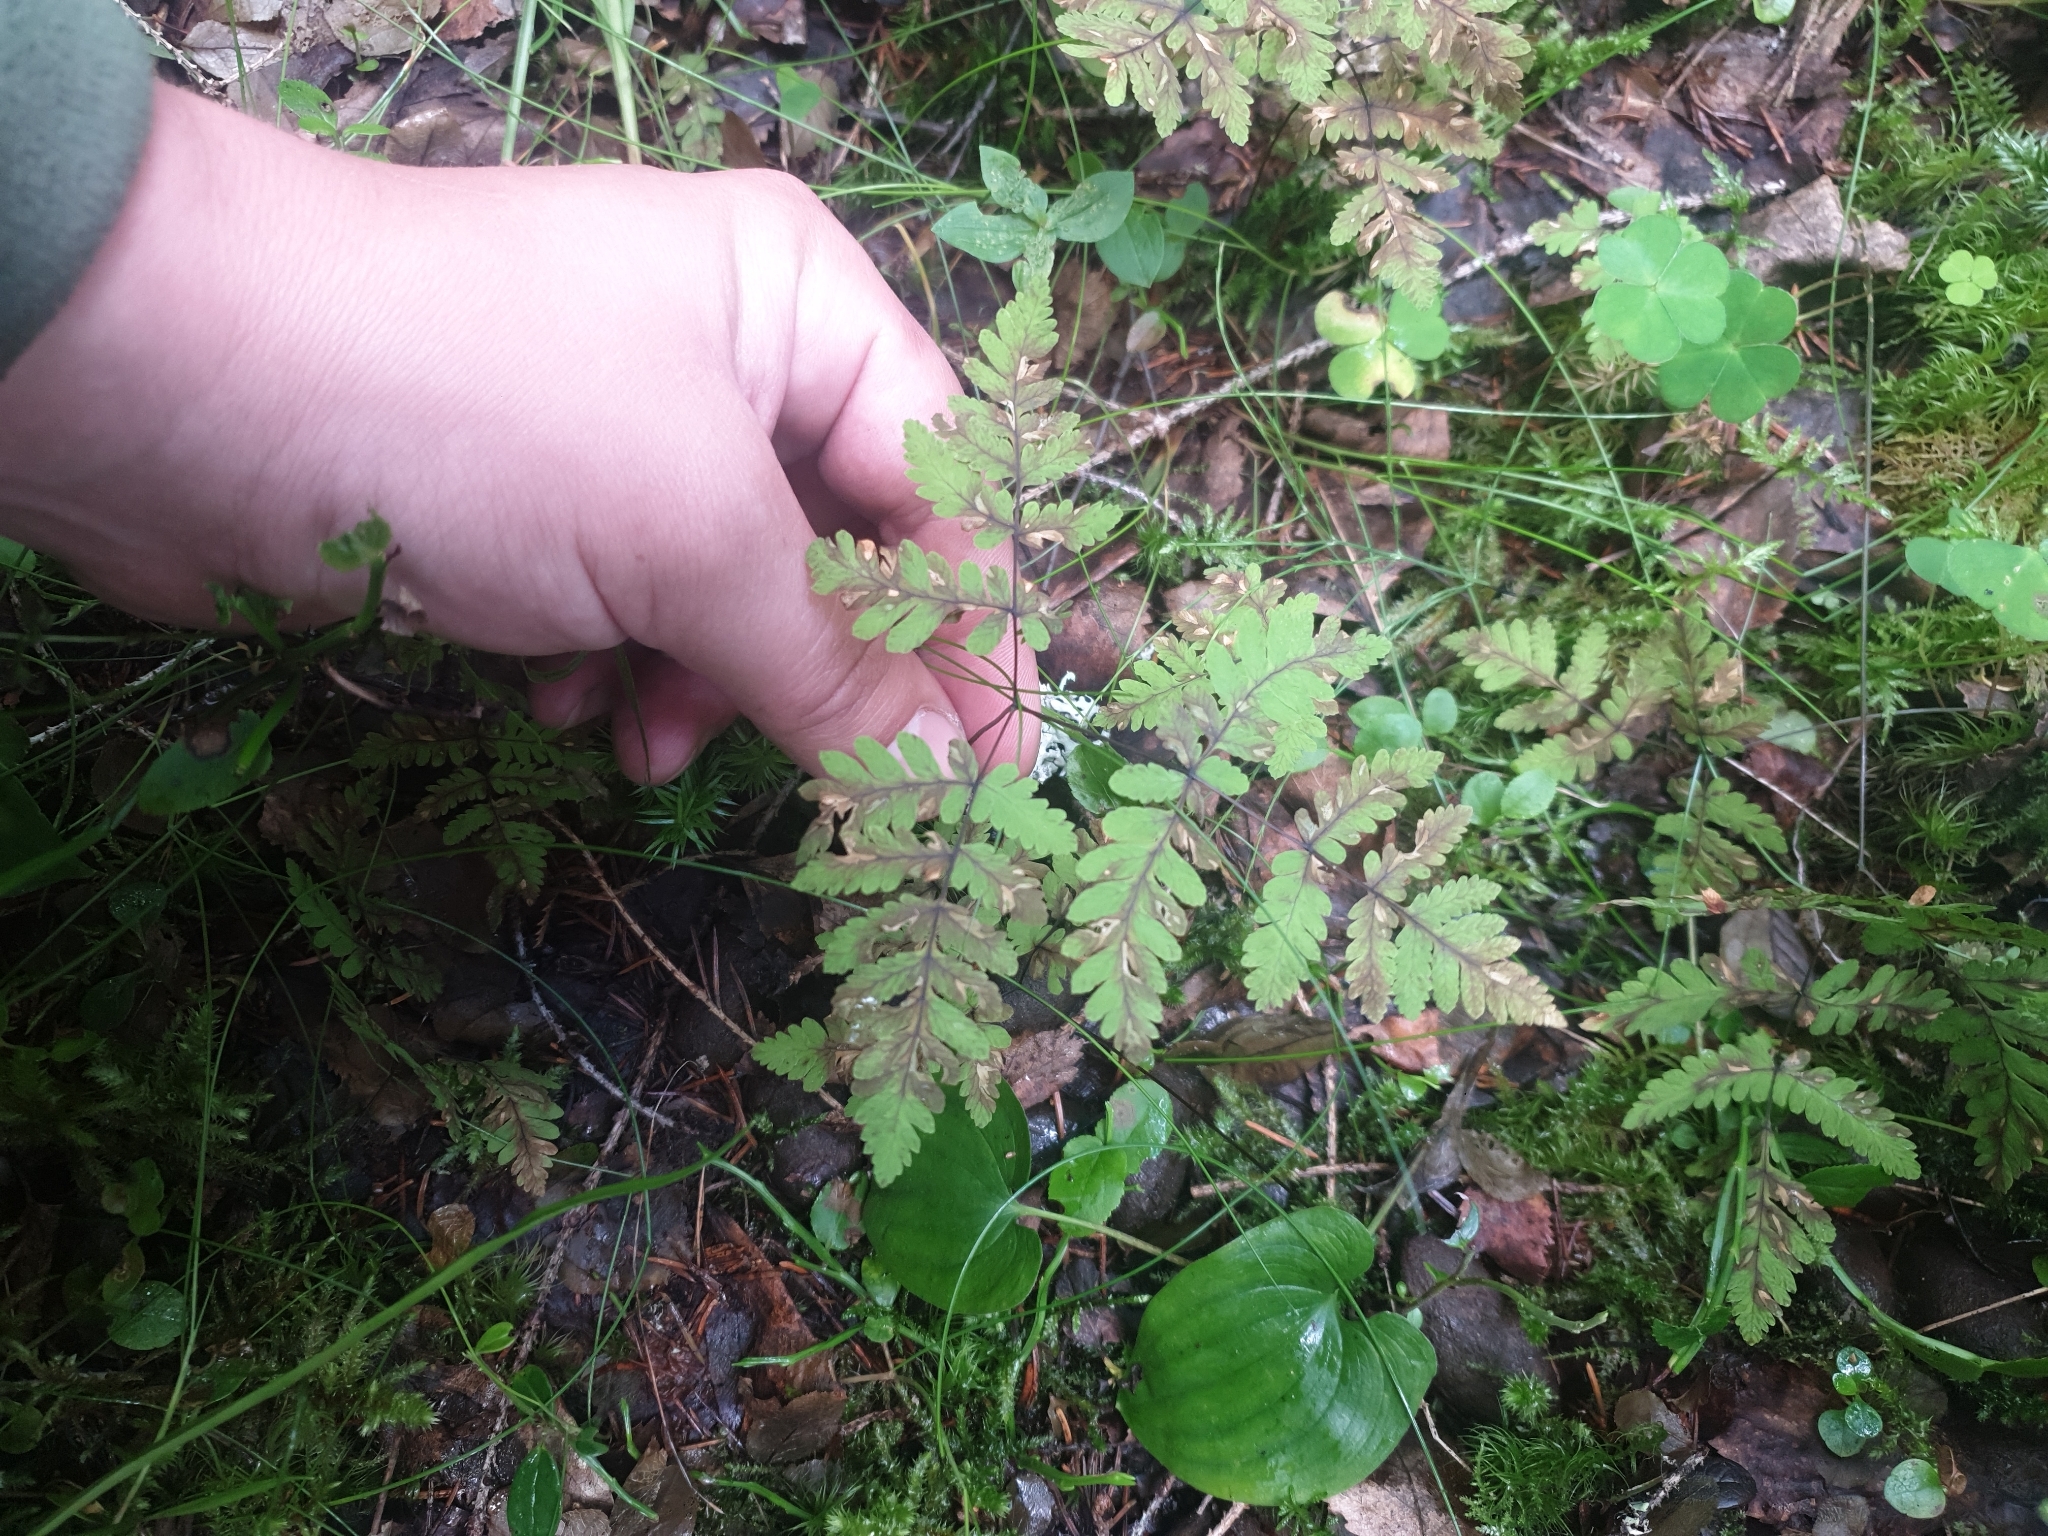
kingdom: Plantae
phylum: Tracheophyta
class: Polypodiopsida
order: Polypodiales
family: Cystopteridaceae
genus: Gymnocarpium
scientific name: Gymnocarpium dryopteris
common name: Oak fern
